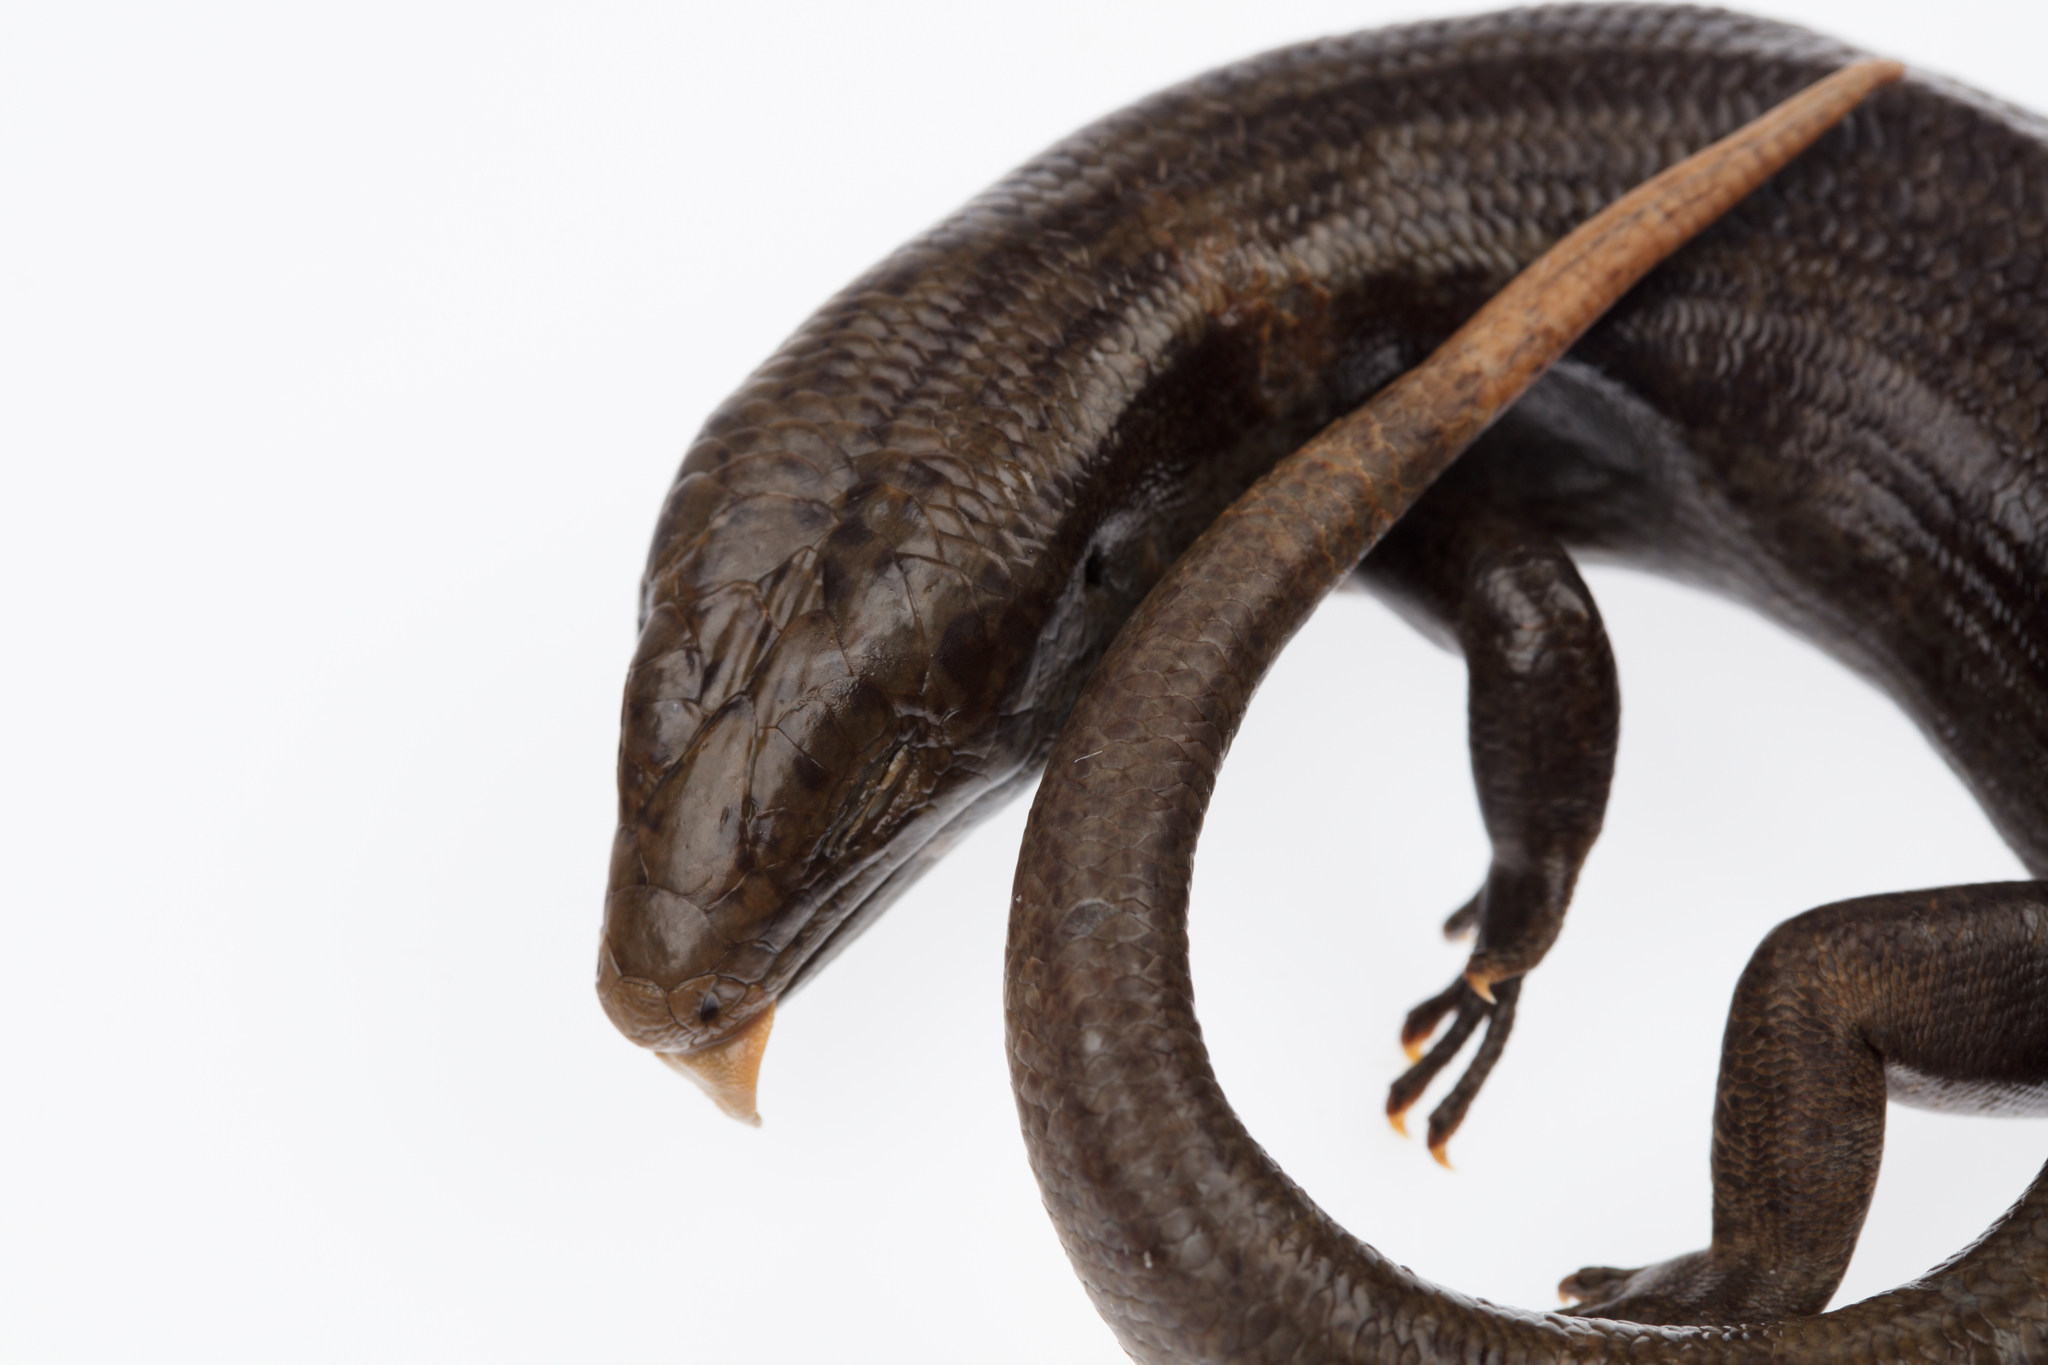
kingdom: Animalia
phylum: Chordata
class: Squamata
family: Scincidae
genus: Oligosoma
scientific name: Oligosoma fallai
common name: Falla's skink
